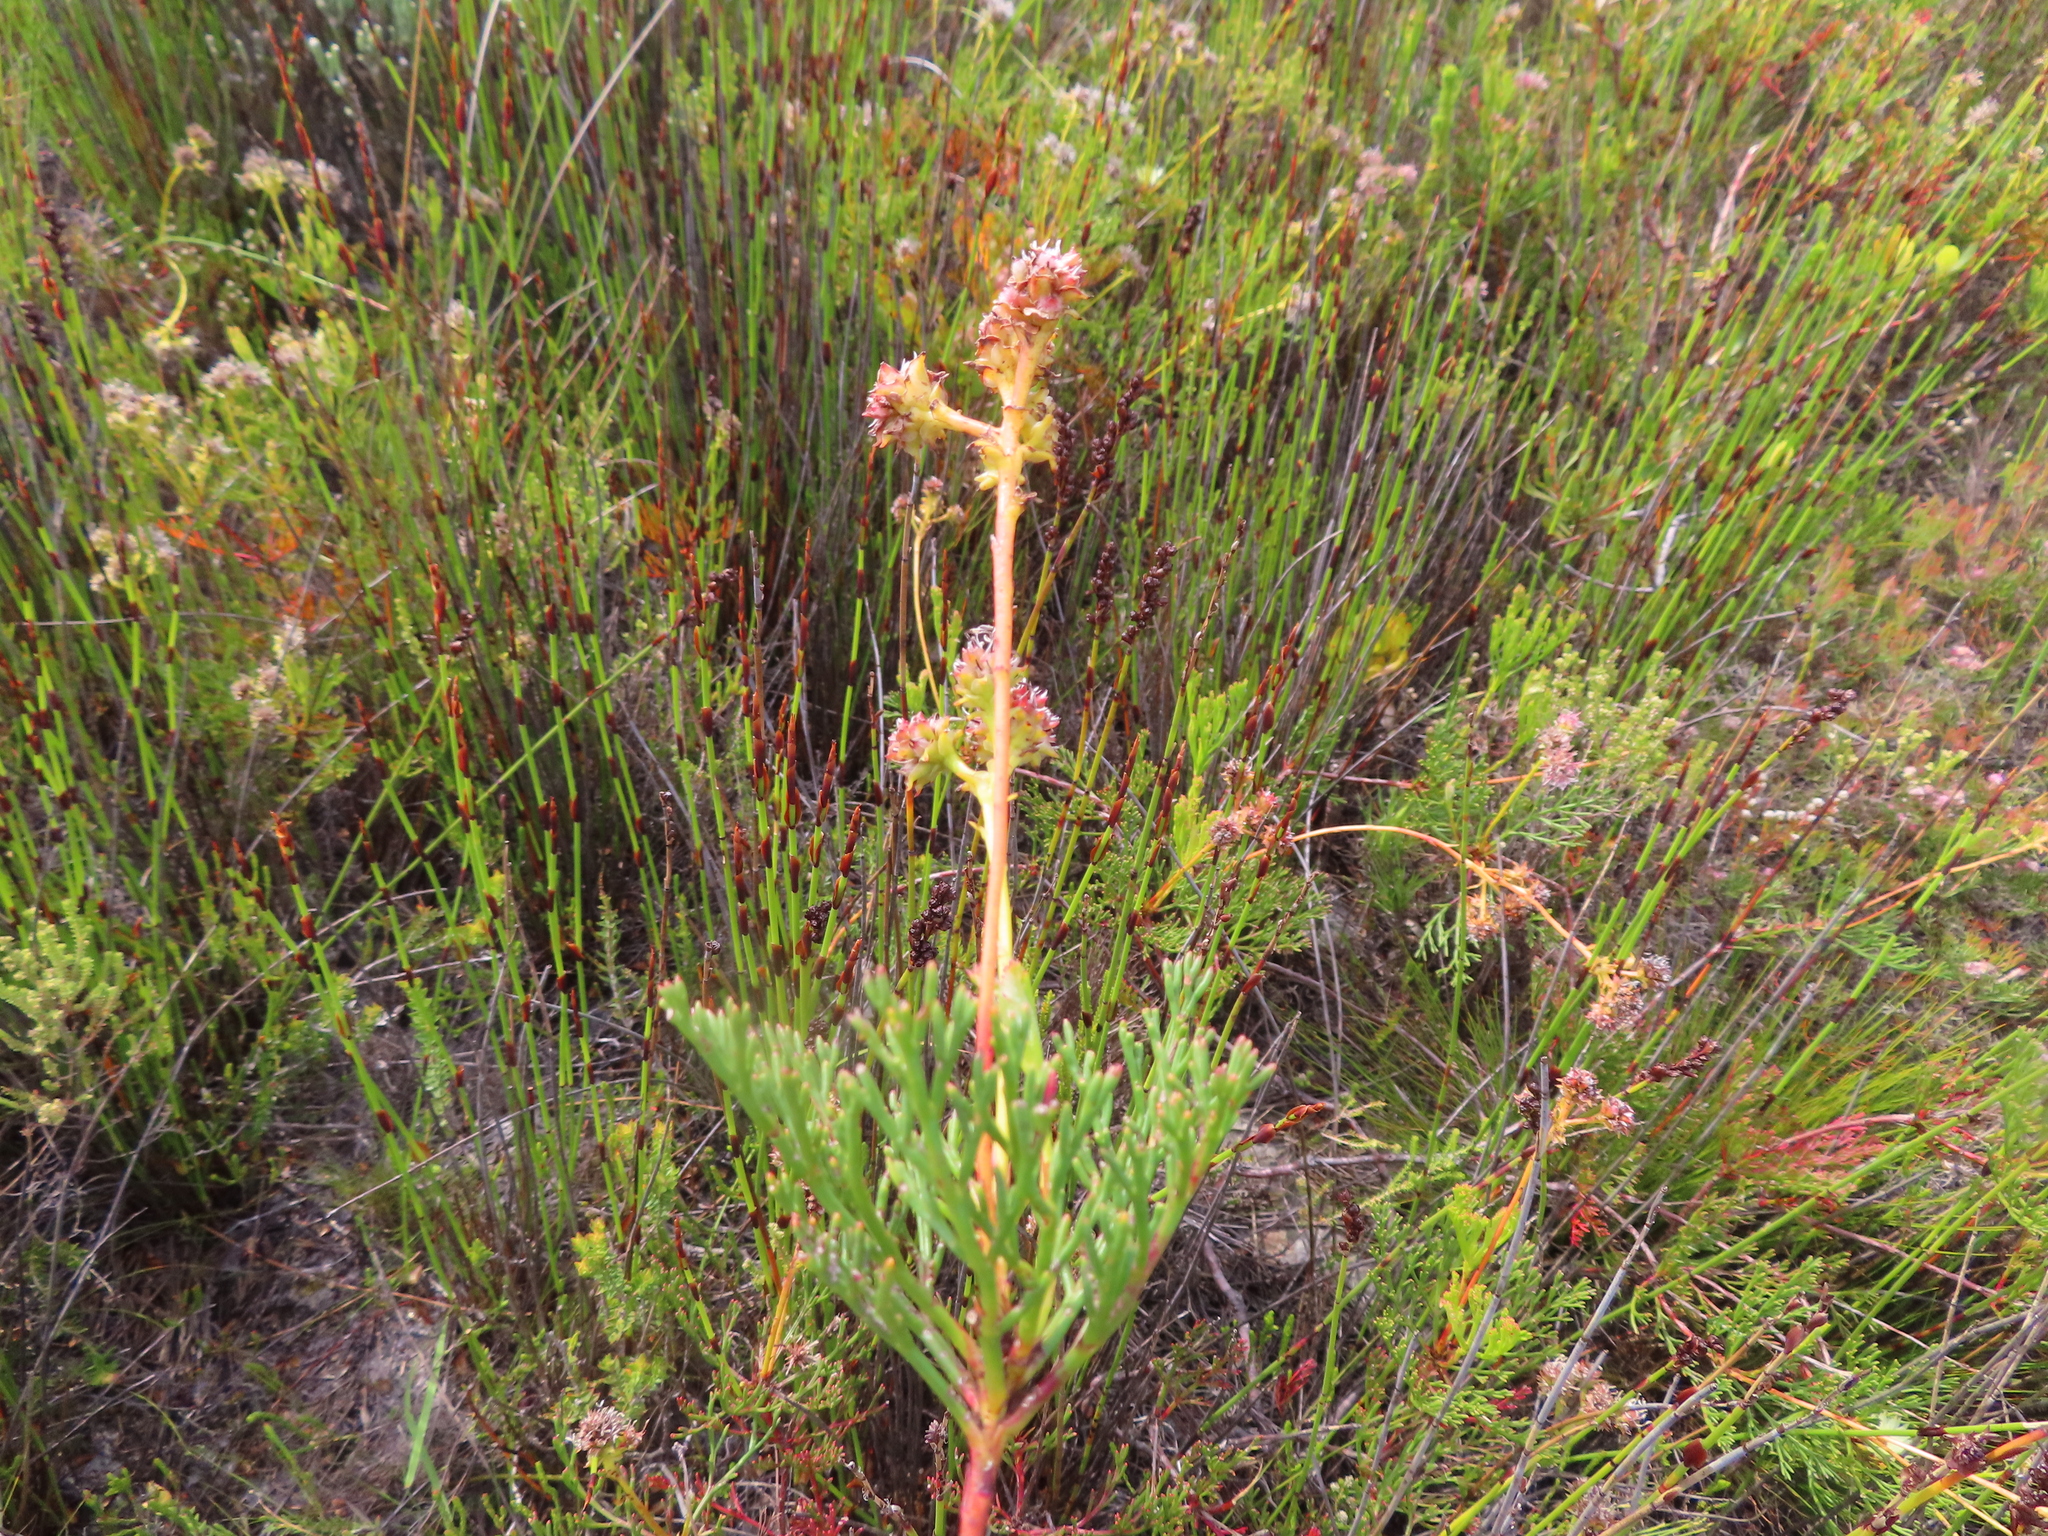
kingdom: Plantae
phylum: Tracheophyta
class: Magnoliopsida
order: Proteales
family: Proteaceae
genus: Serruria
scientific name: Serruria elongata
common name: Long-stalk spiderhead
